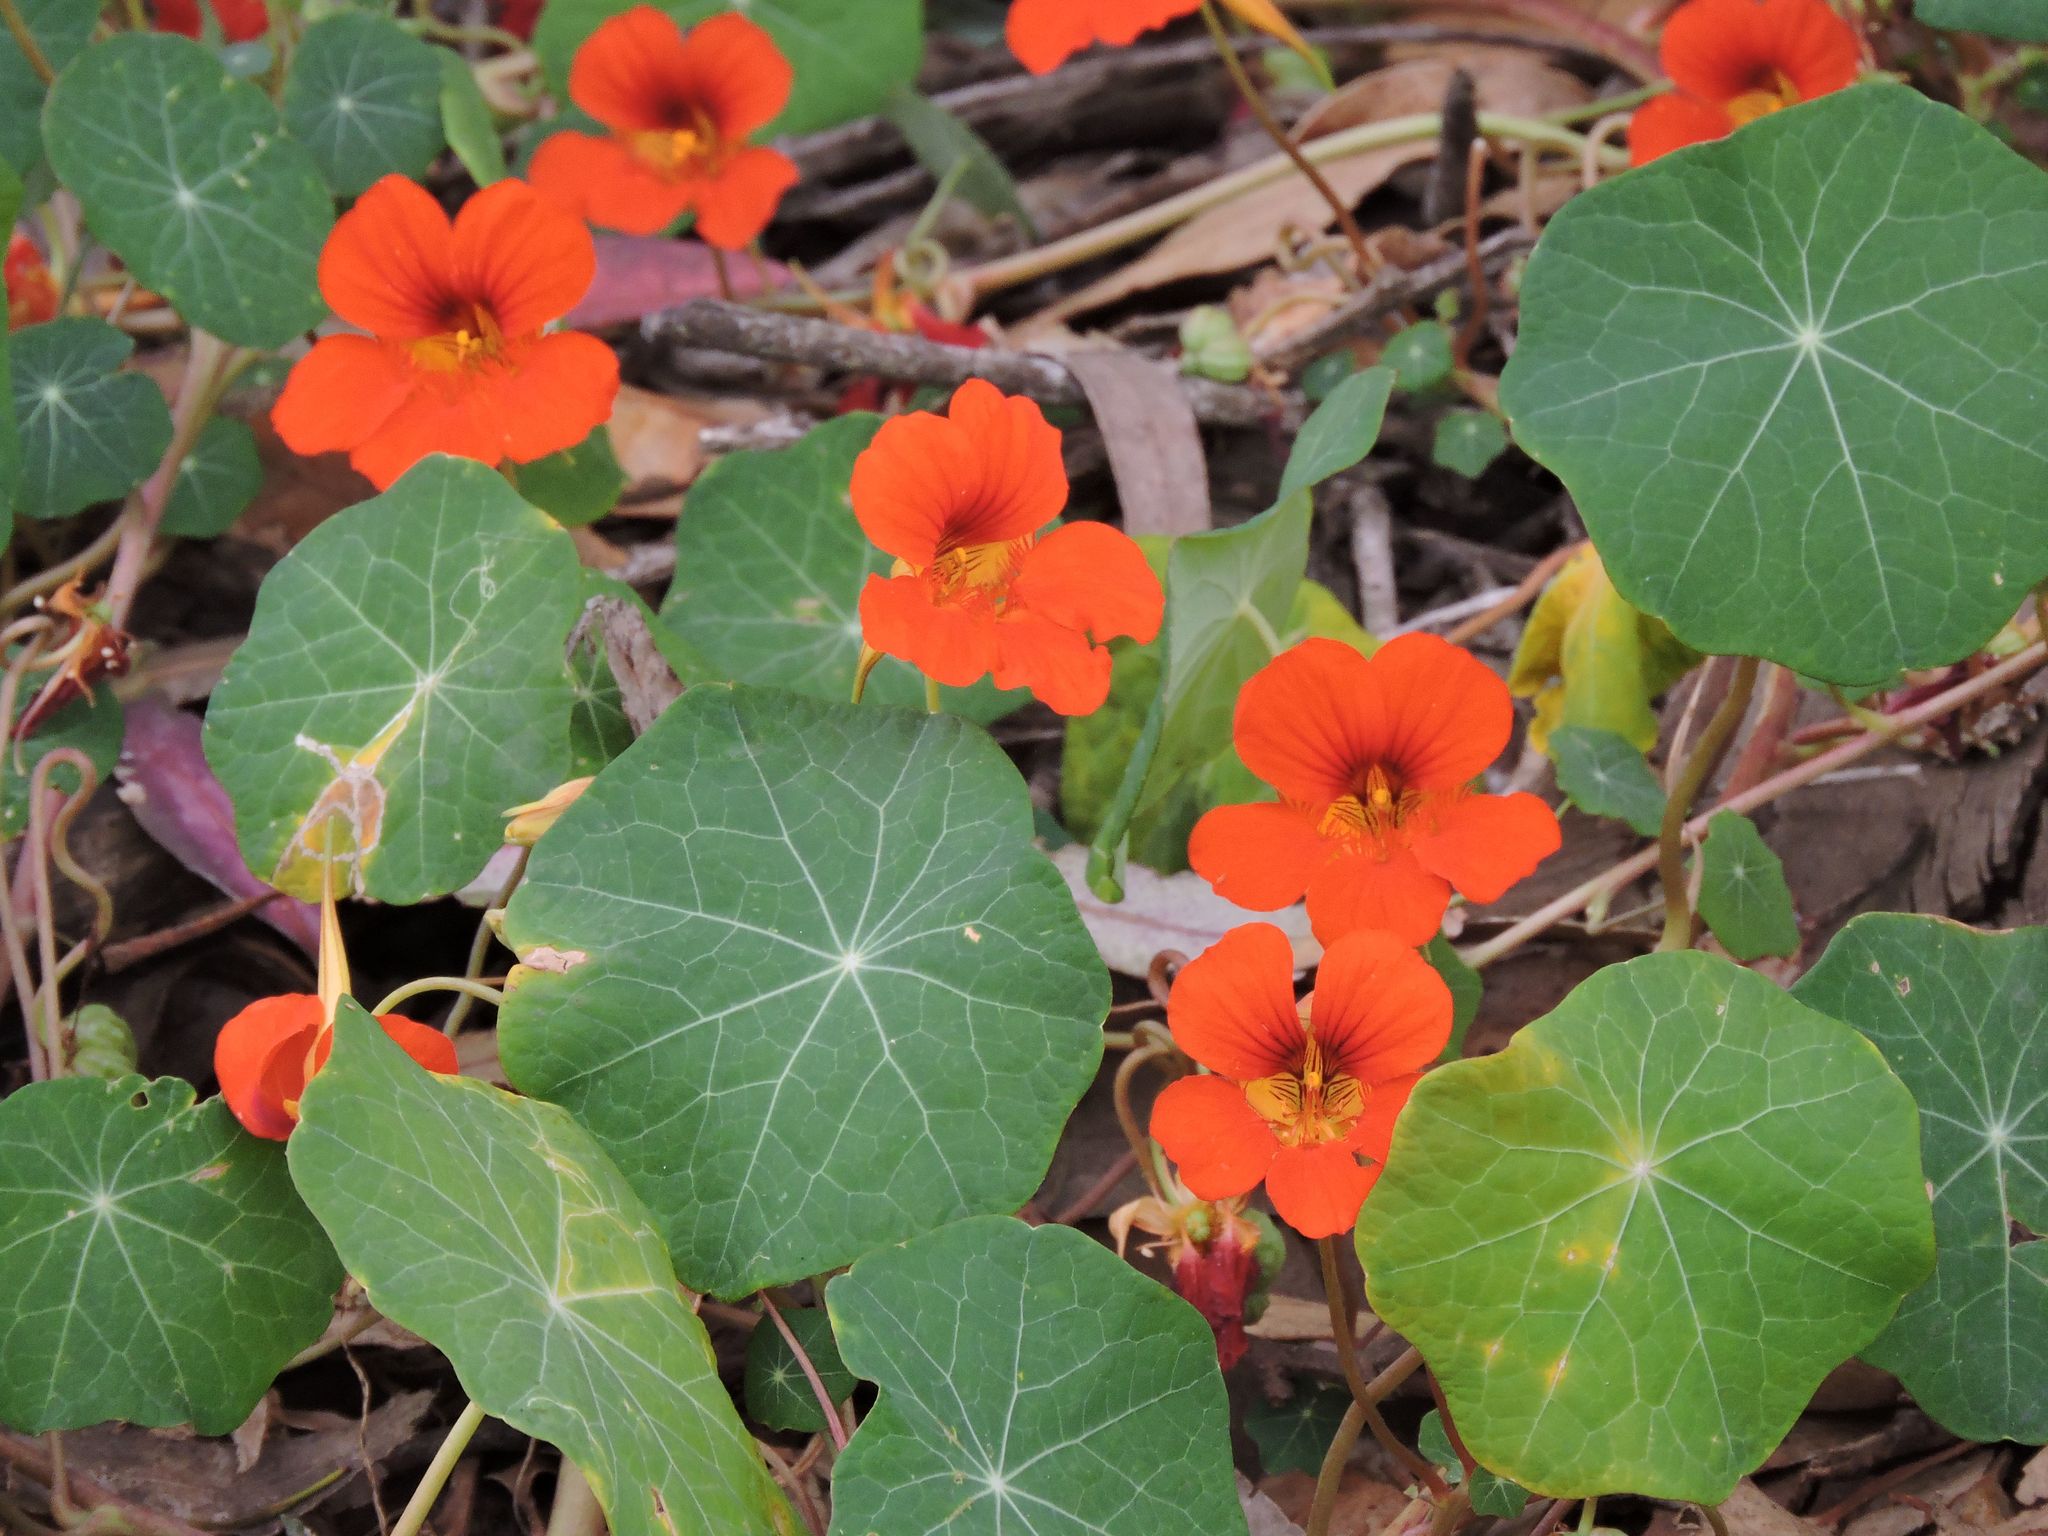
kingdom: Plantae
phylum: Tracheophyta
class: Magnoliopsida
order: Brassicales
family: Tropaeolaceae
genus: Tropaeolum
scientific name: Tropaeolum majus
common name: Nasturtium
